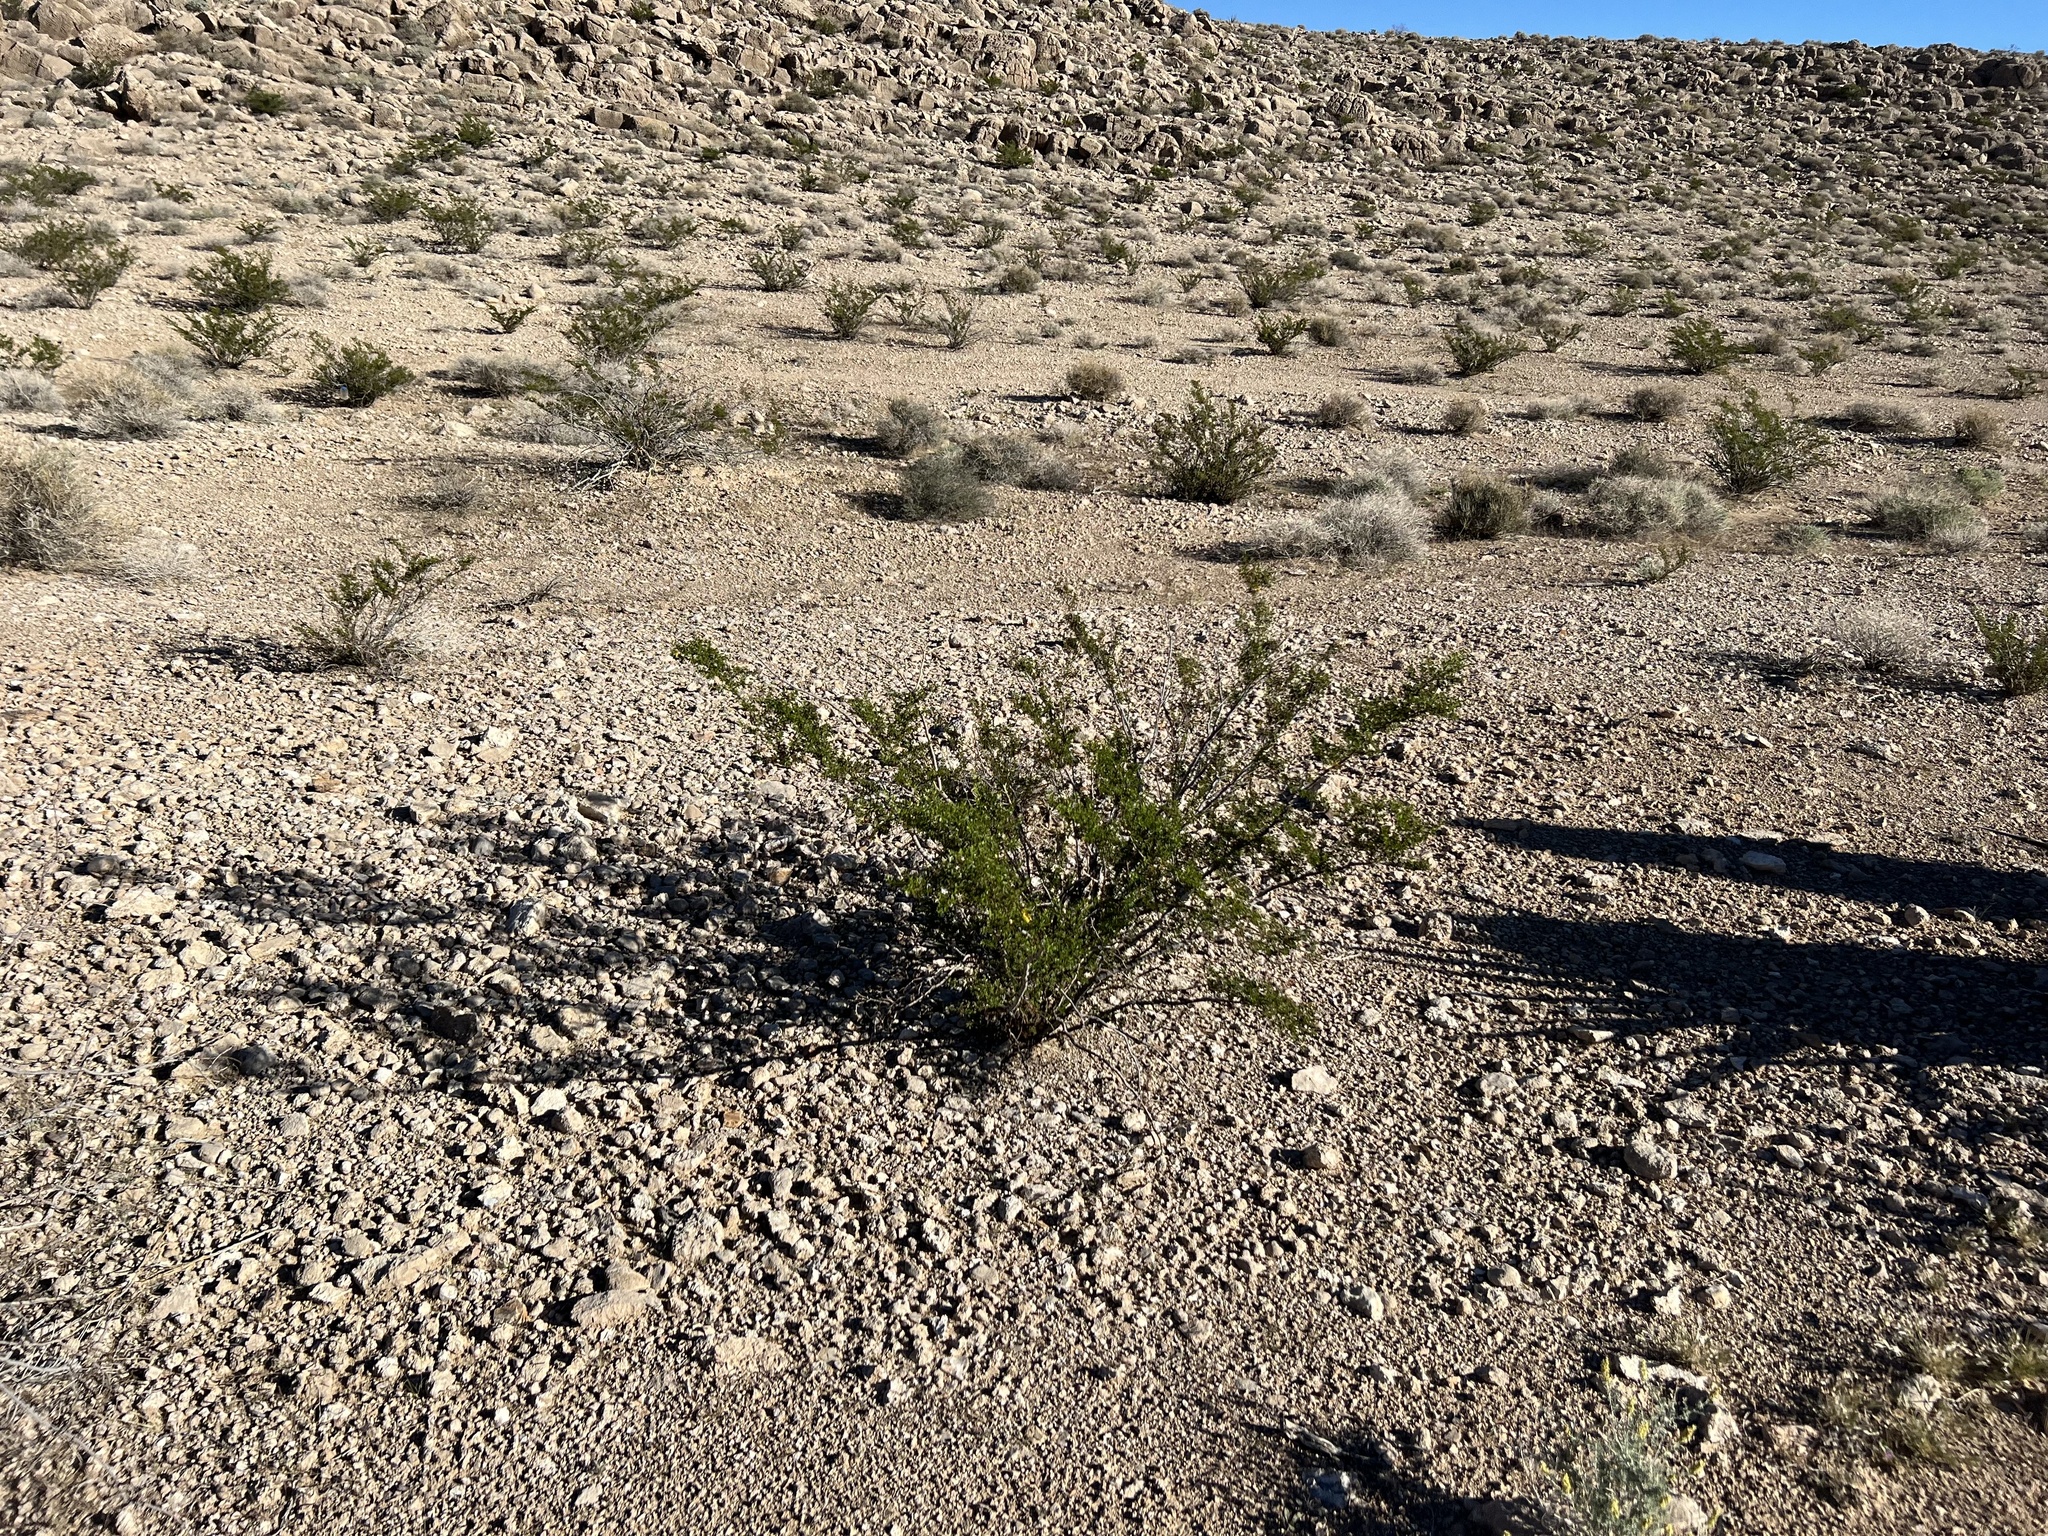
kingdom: Plantae
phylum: Tracheophyta
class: Magnoliopsida
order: Zygophyllales
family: Zygophyllaceae
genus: Larrea
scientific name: Larrea tridentata
